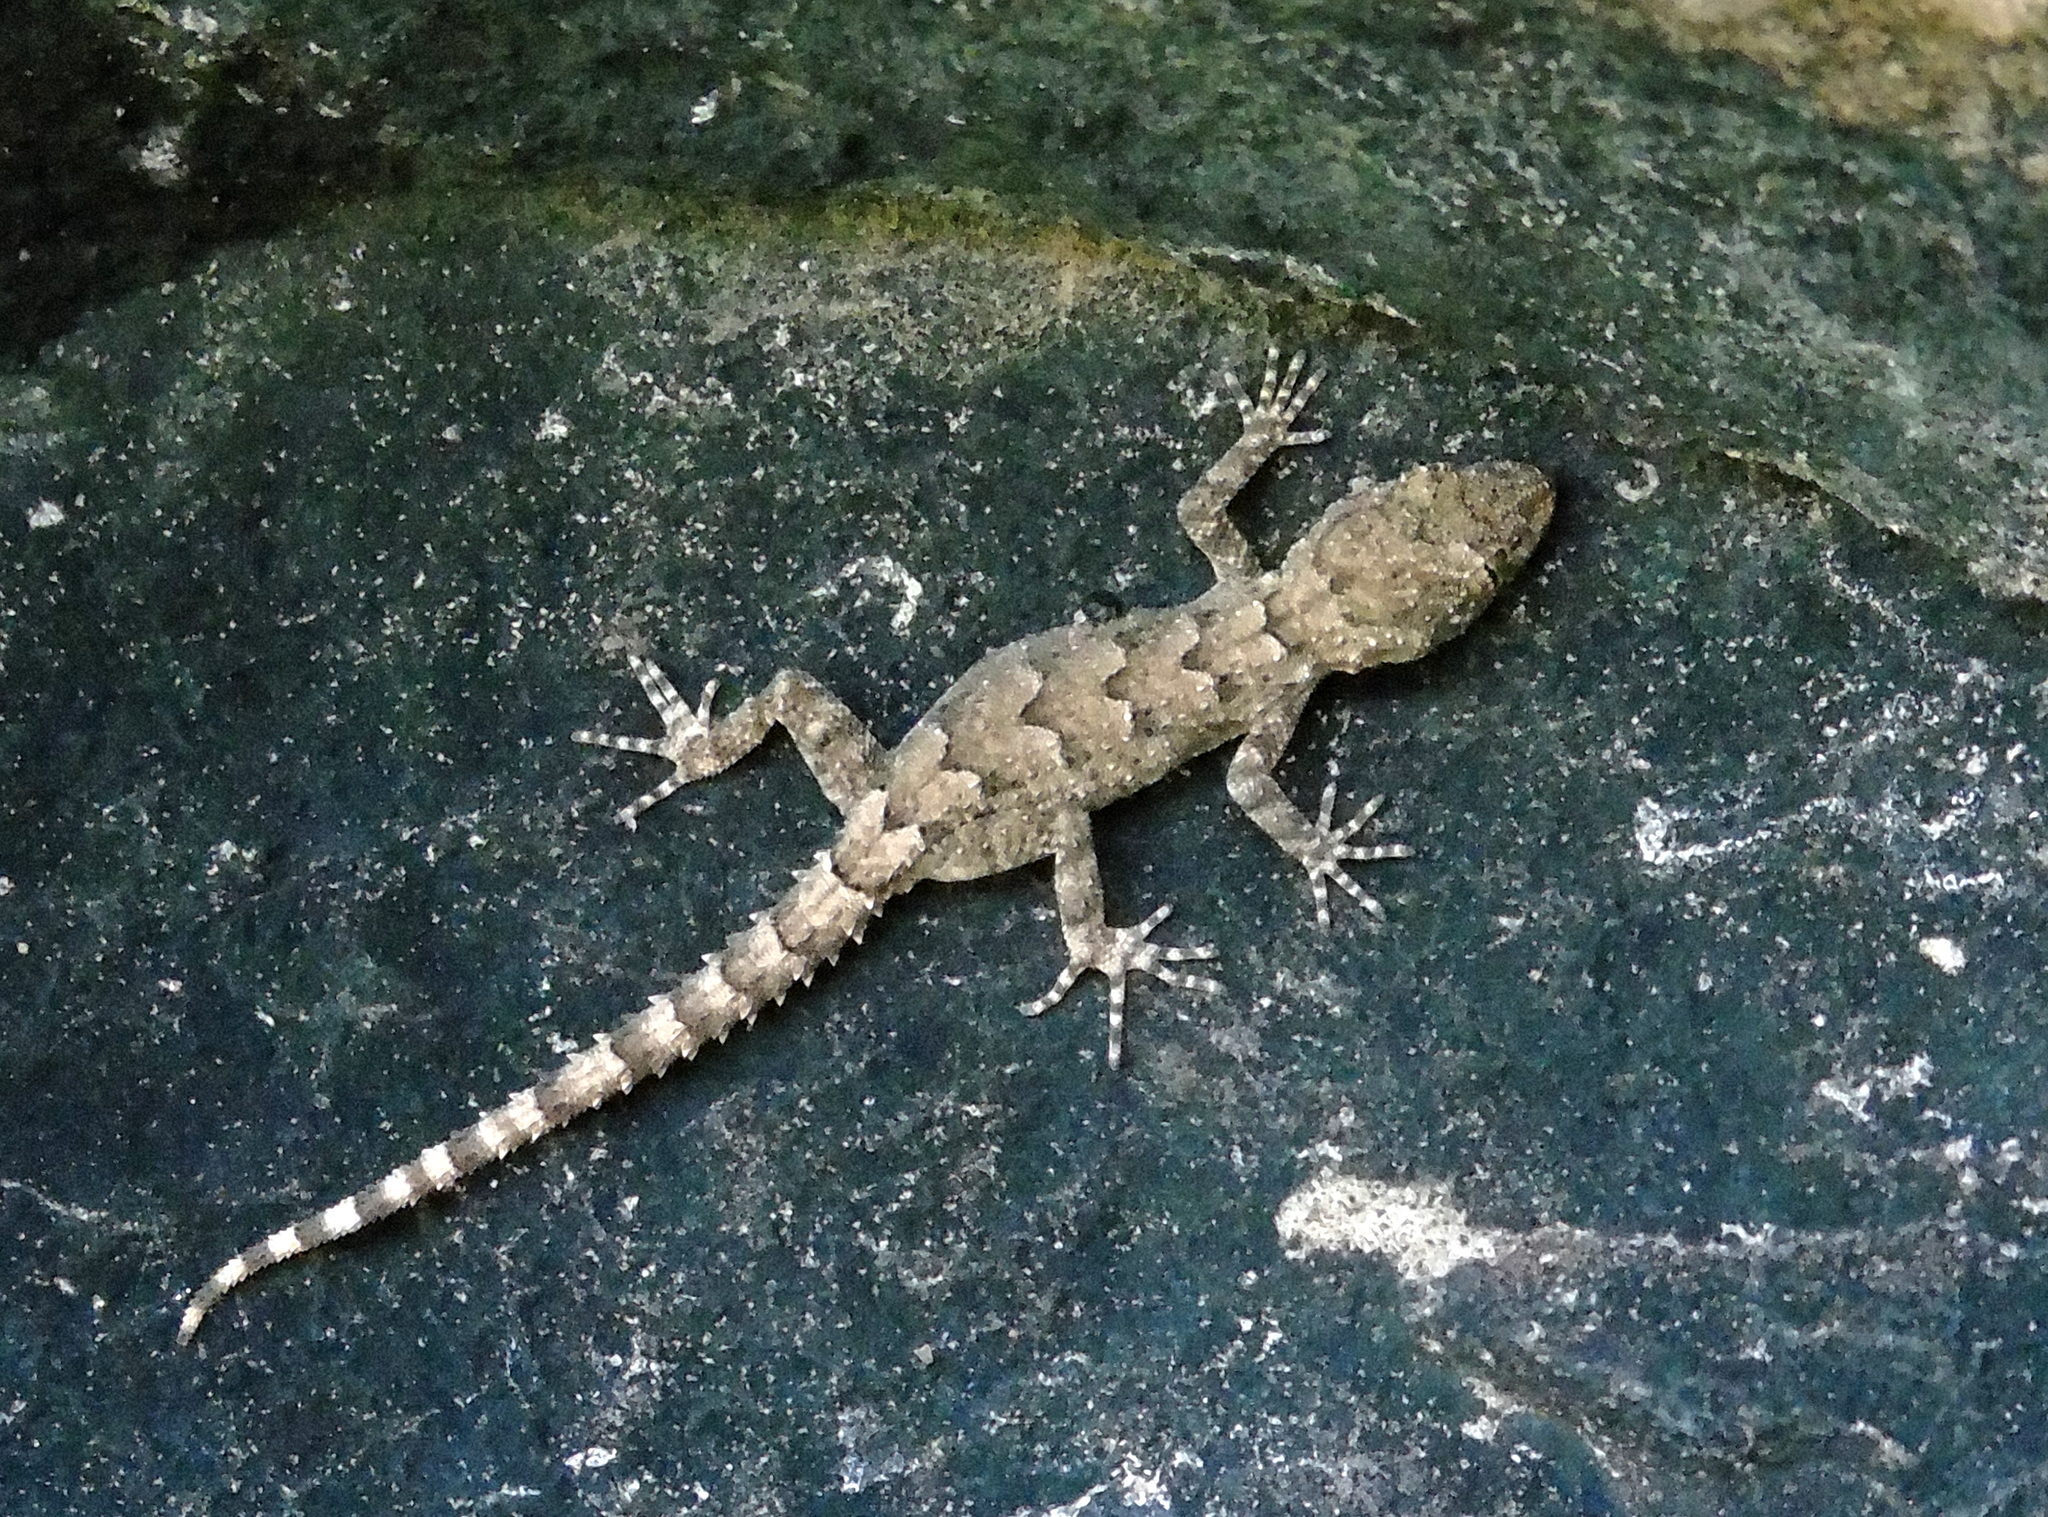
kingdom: Animalia
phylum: Chordata
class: Squamata
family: Gekkonidae
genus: Mediodactylus
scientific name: Mediodactylus heterocercus
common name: Asia minor thin-toed gecko
